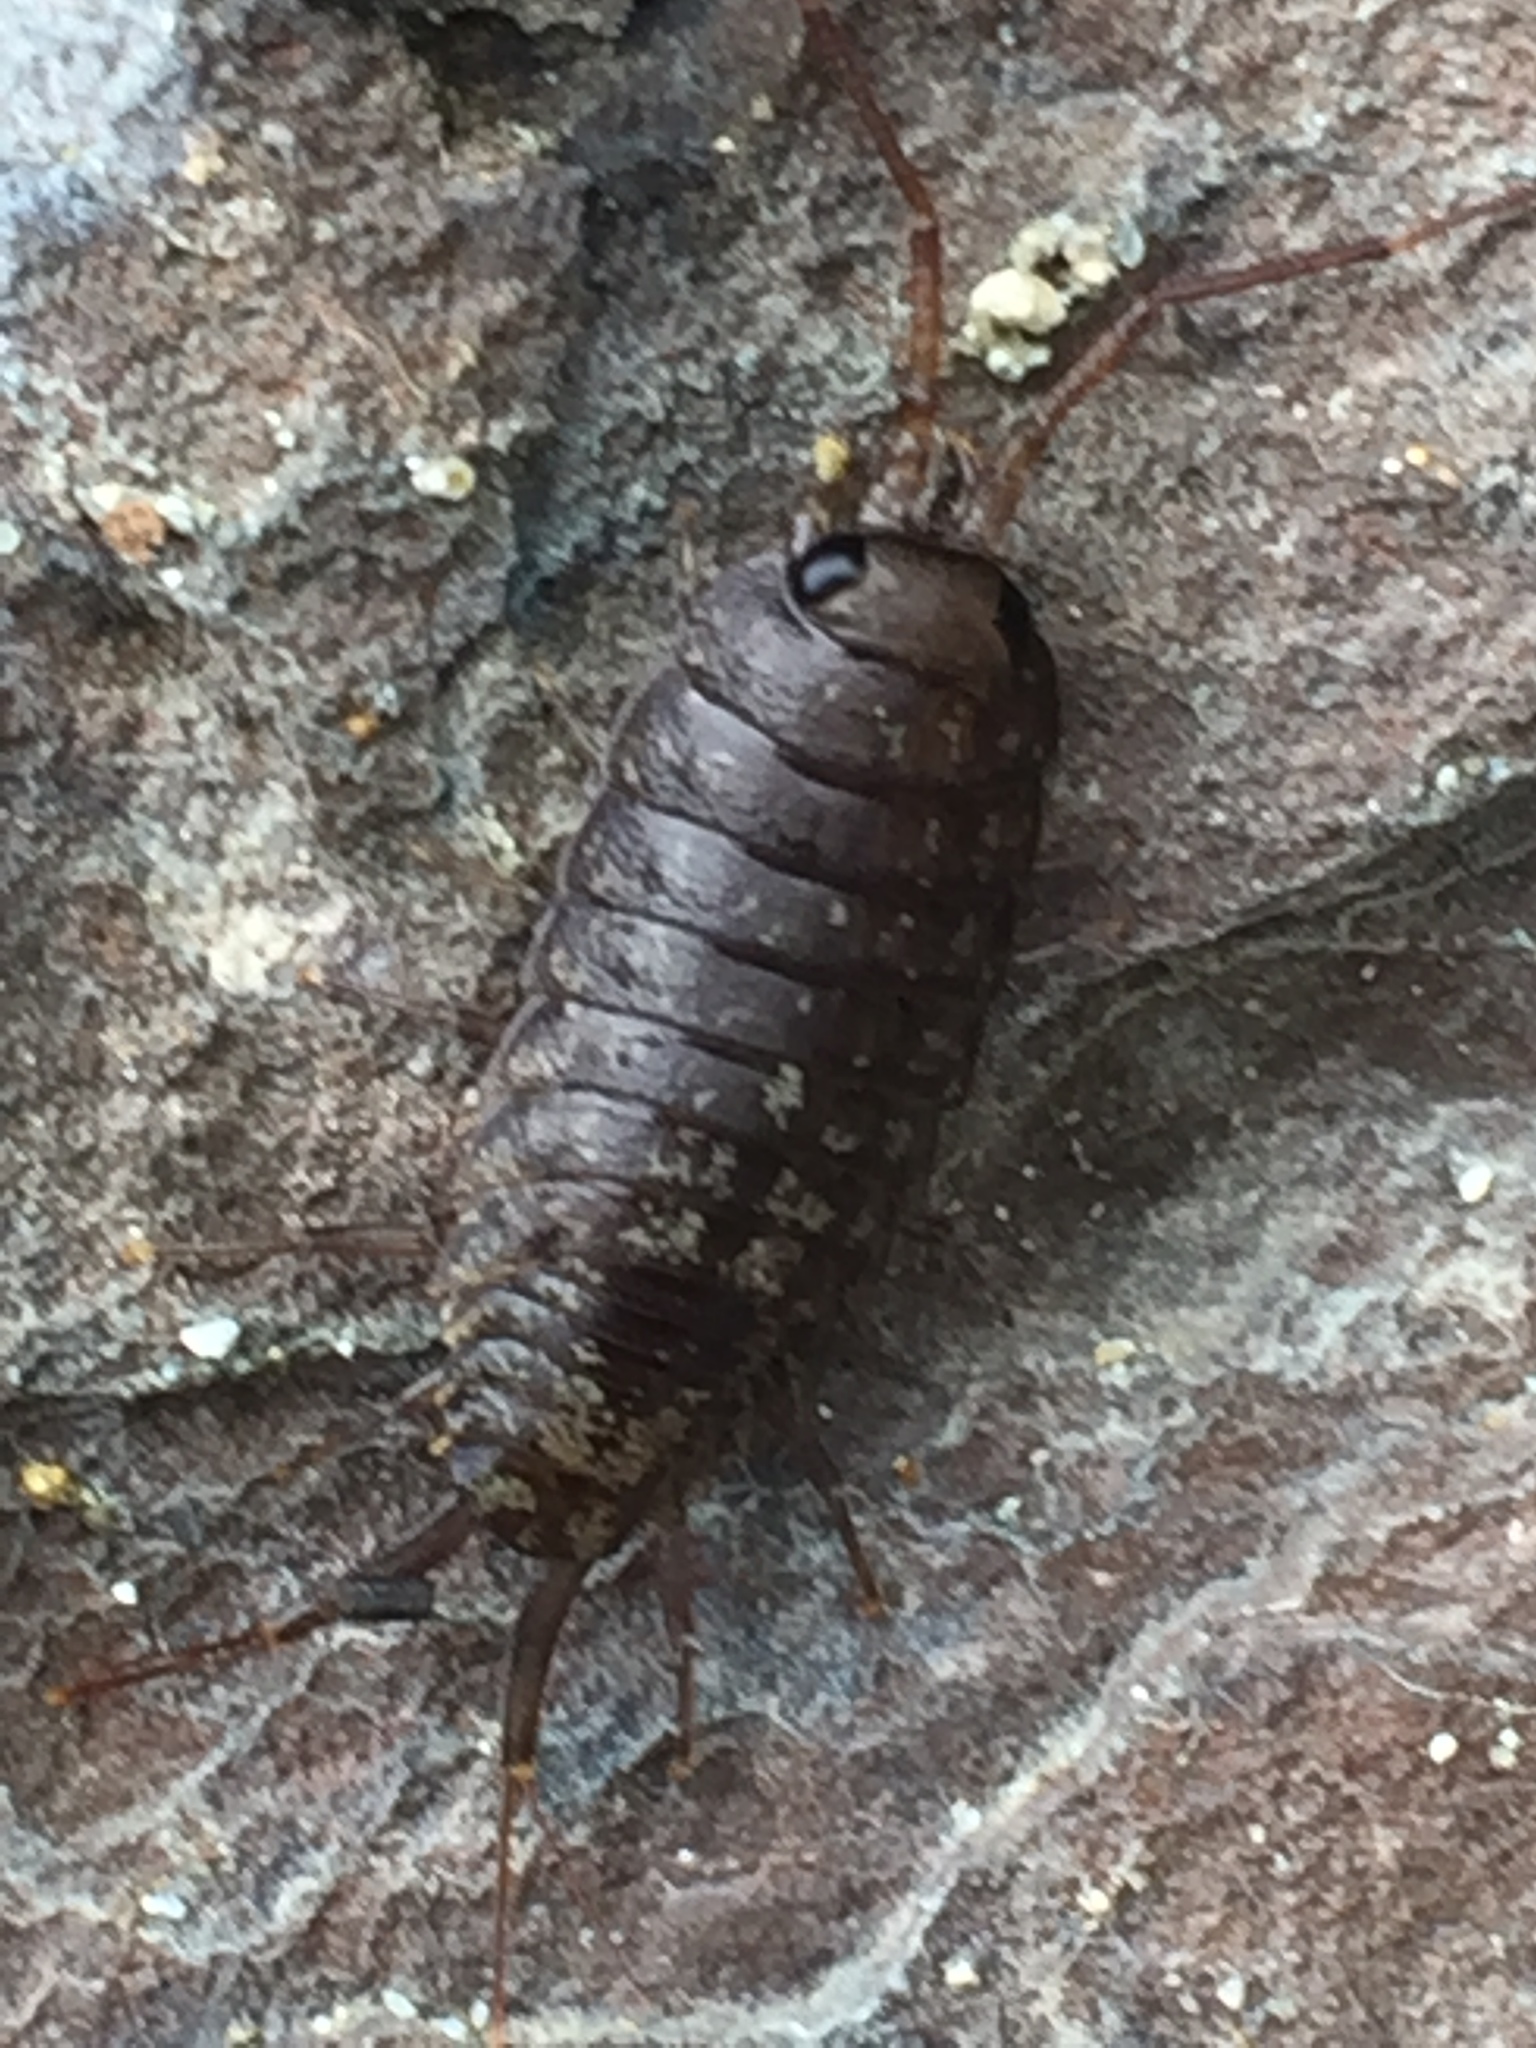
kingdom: Animalia
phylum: Arthropoda
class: Malacostraca
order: Isopoda
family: Ligiidae
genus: Ligia
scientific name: Ligia novizealandiae
